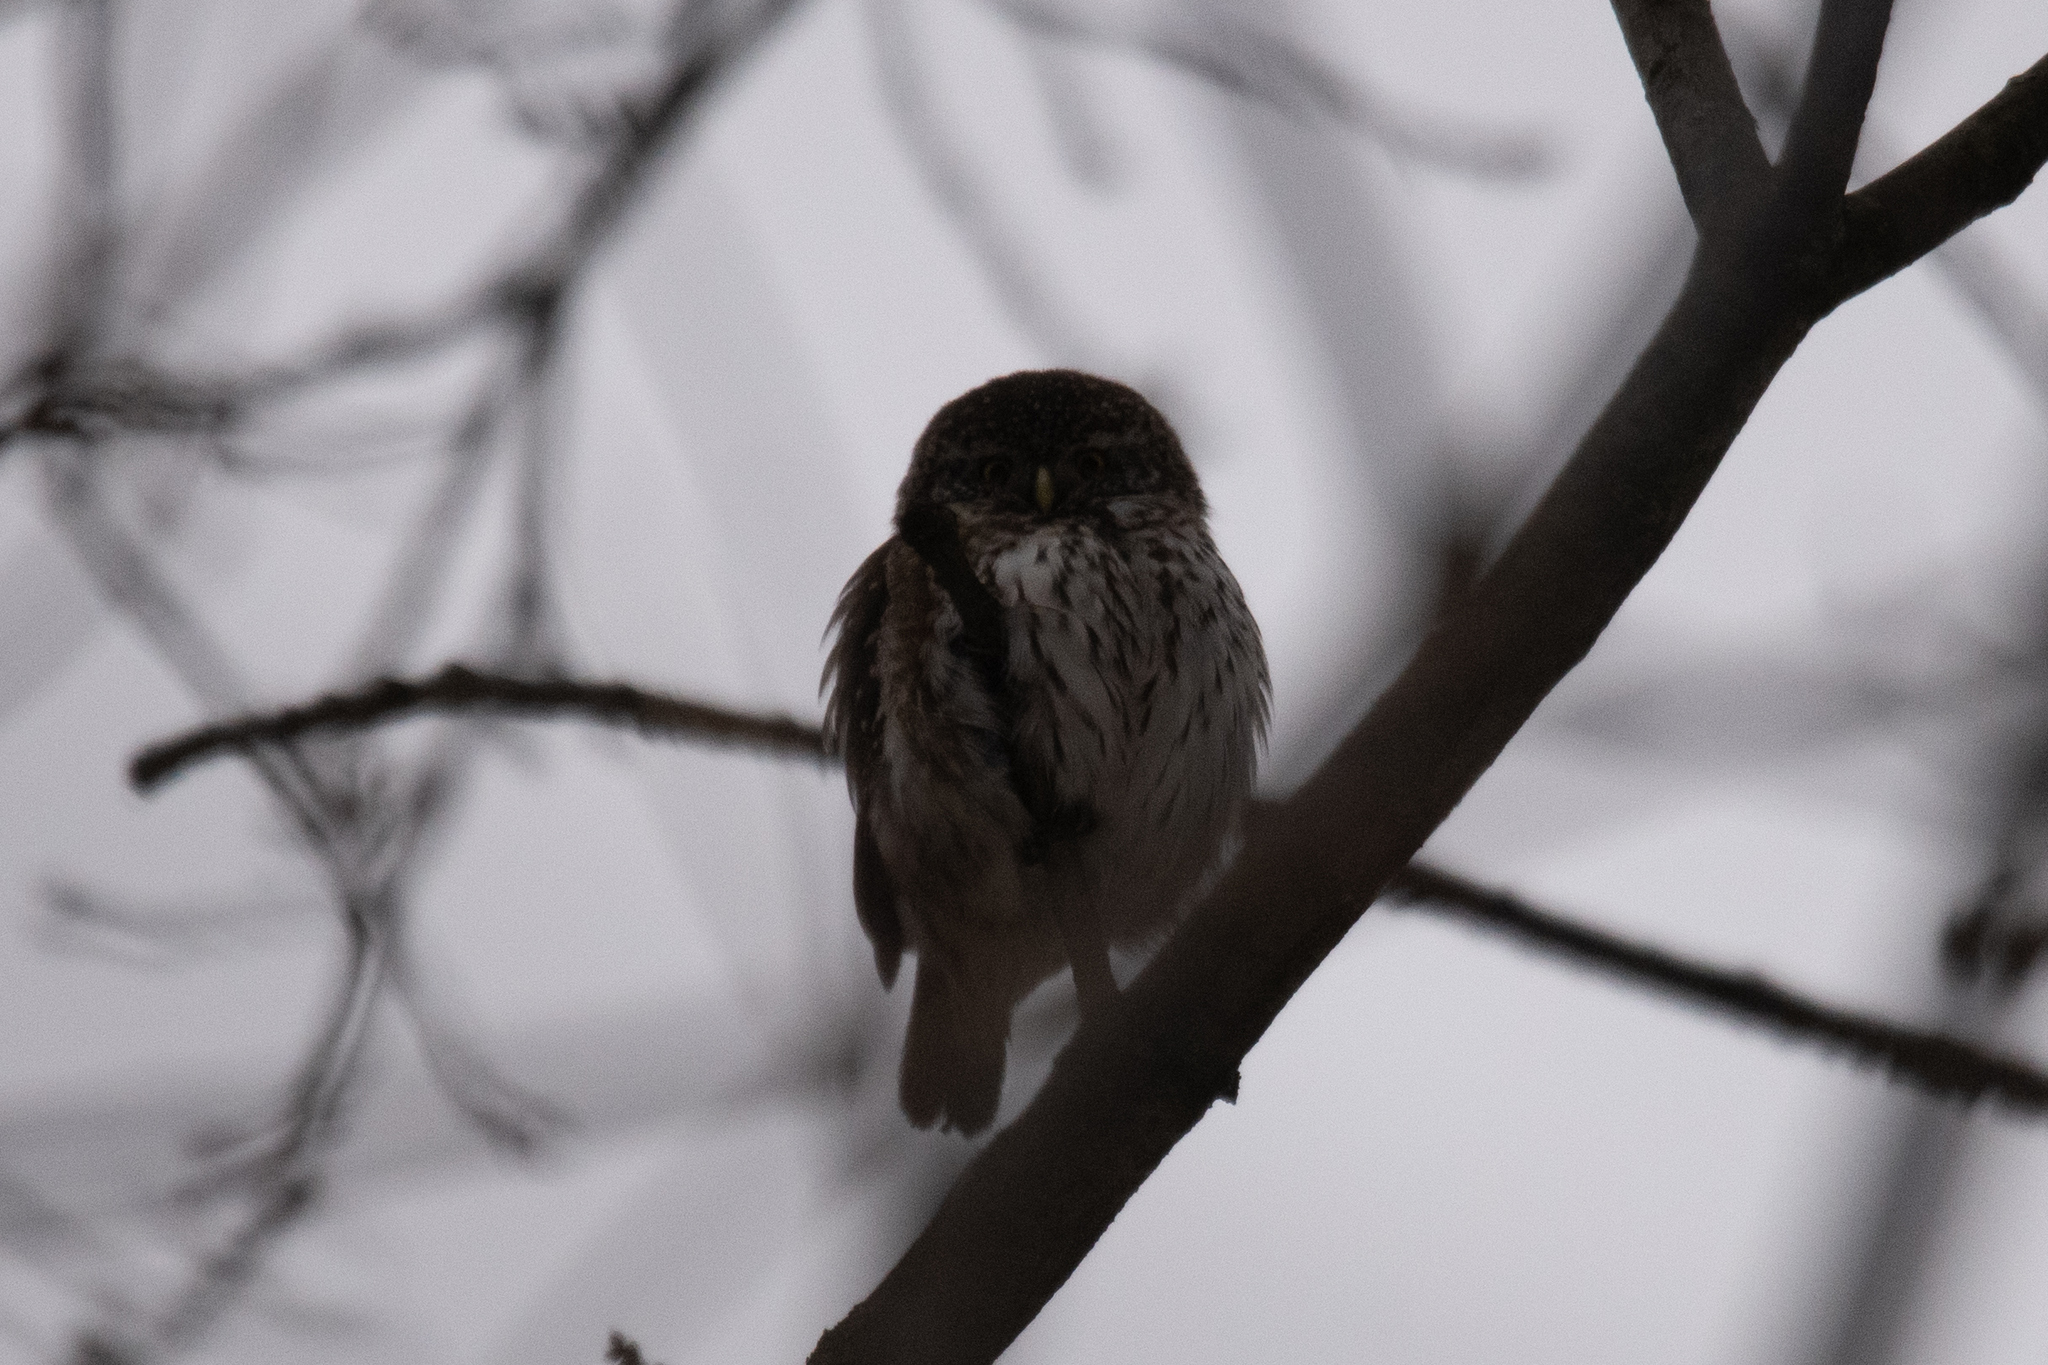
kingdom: Animalia
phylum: Chordata
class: Aves
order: Strigiformes
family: Strigidae
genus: Glaucidium
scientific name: Glaucidium passerinum
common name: Eurasian pygmy owl
